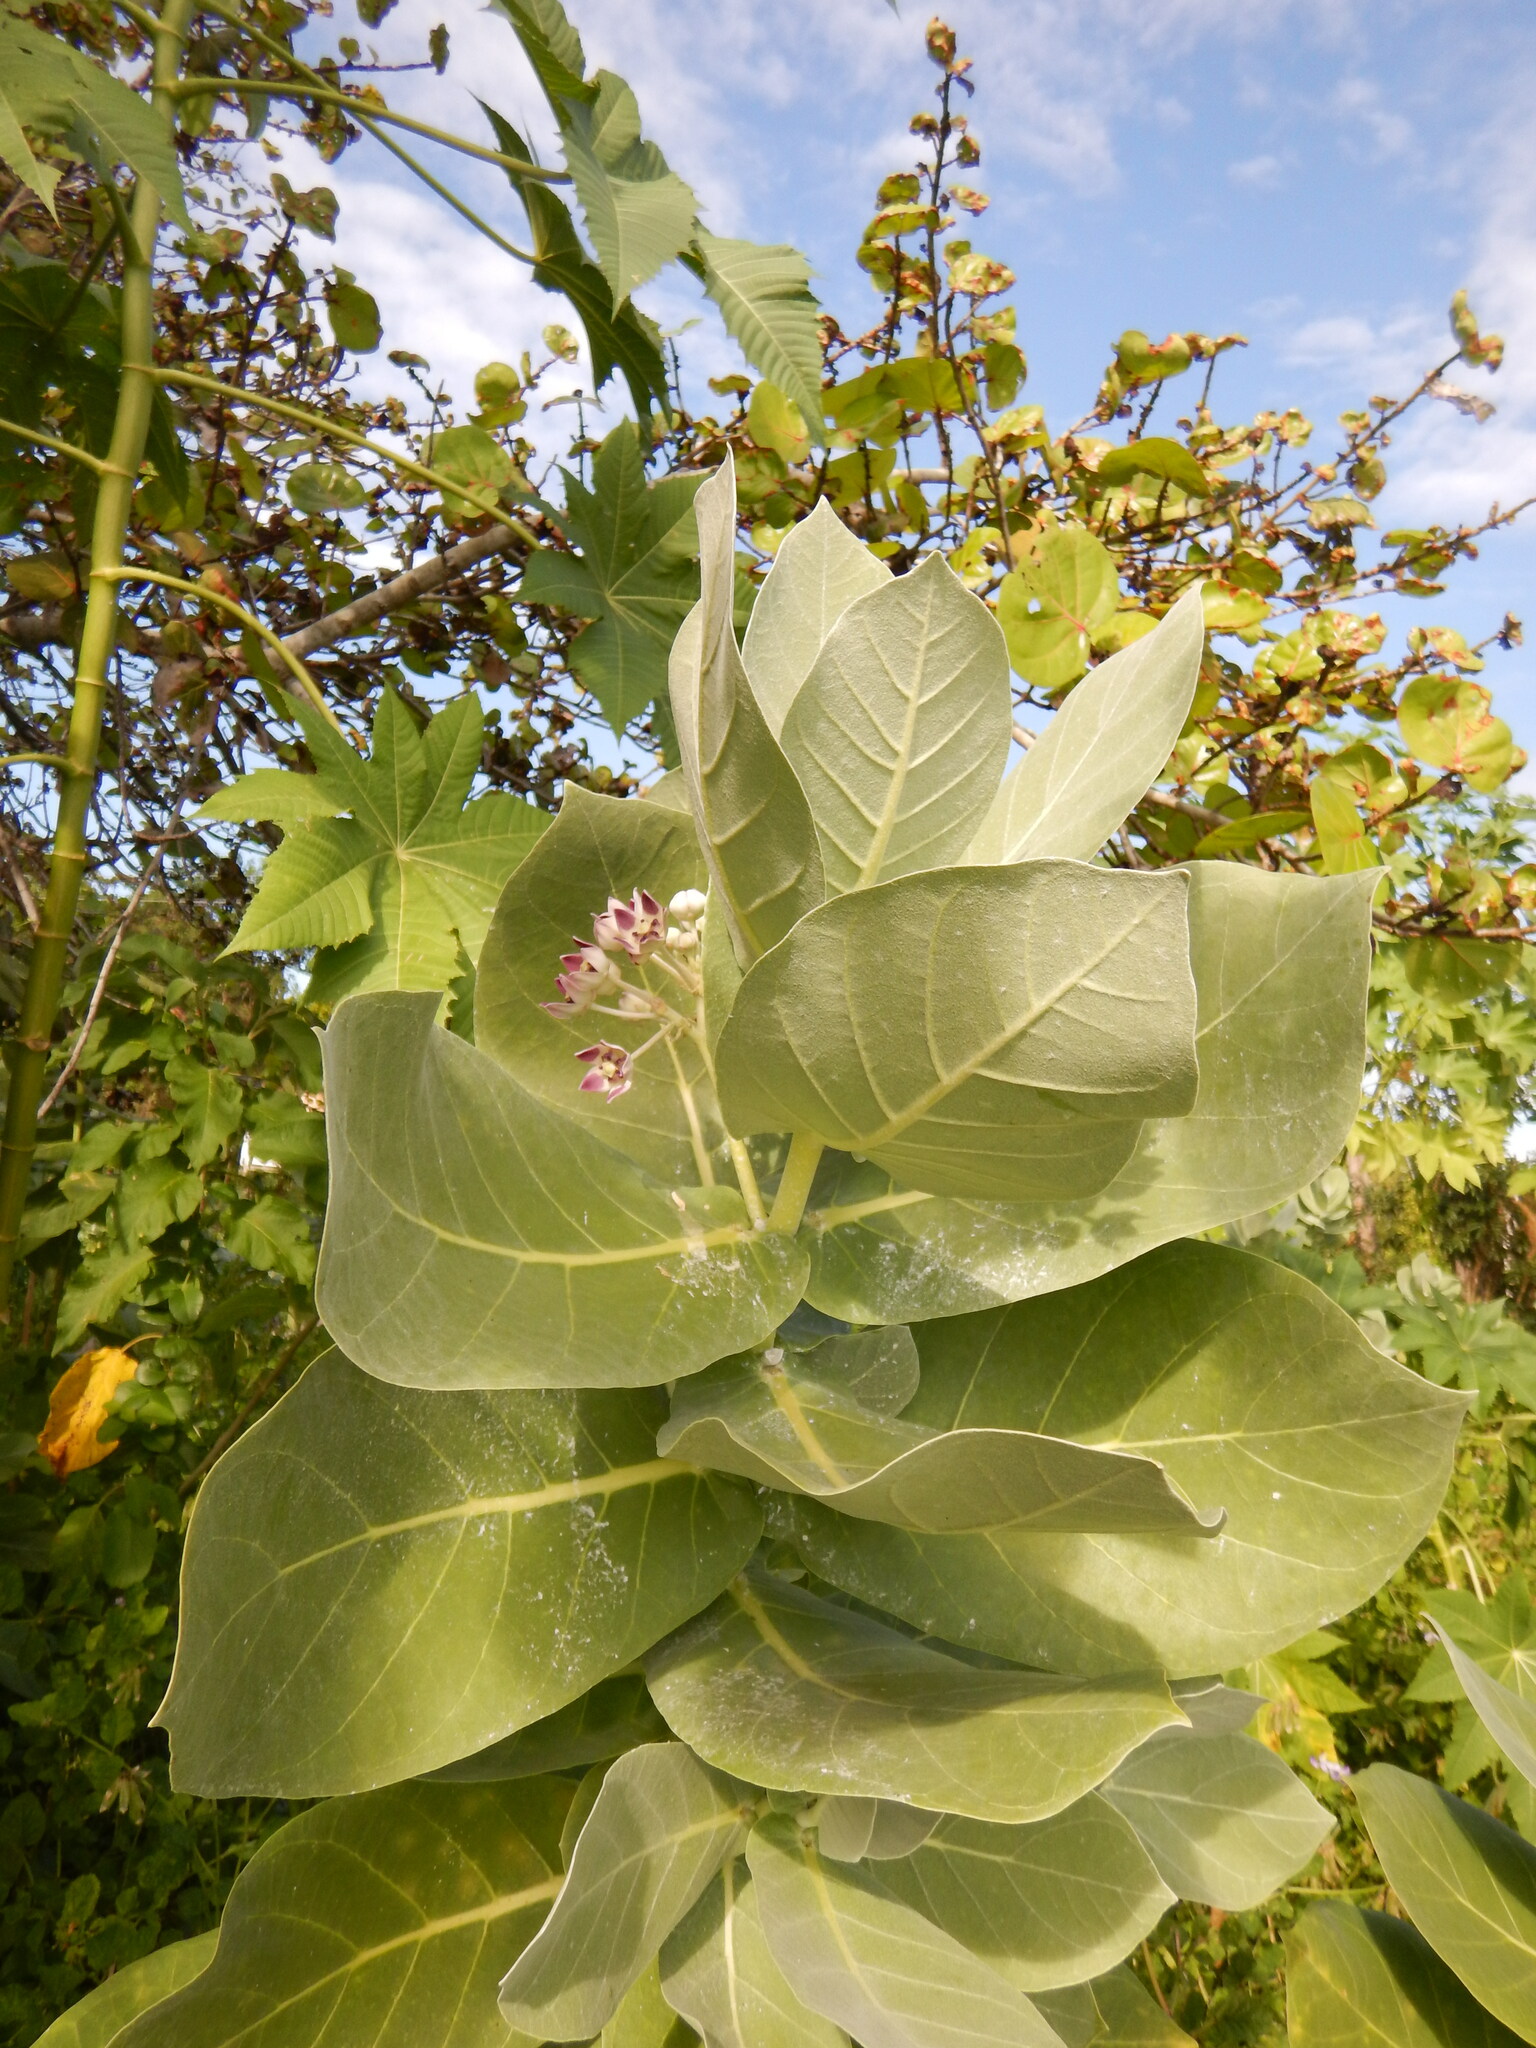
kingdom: Plantae
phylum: Tracheophyta
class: Magnoliopsida
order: Gentianales
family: Apocynaceae
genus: Calotropis
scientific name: Calotropis procera
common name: Roostertree
